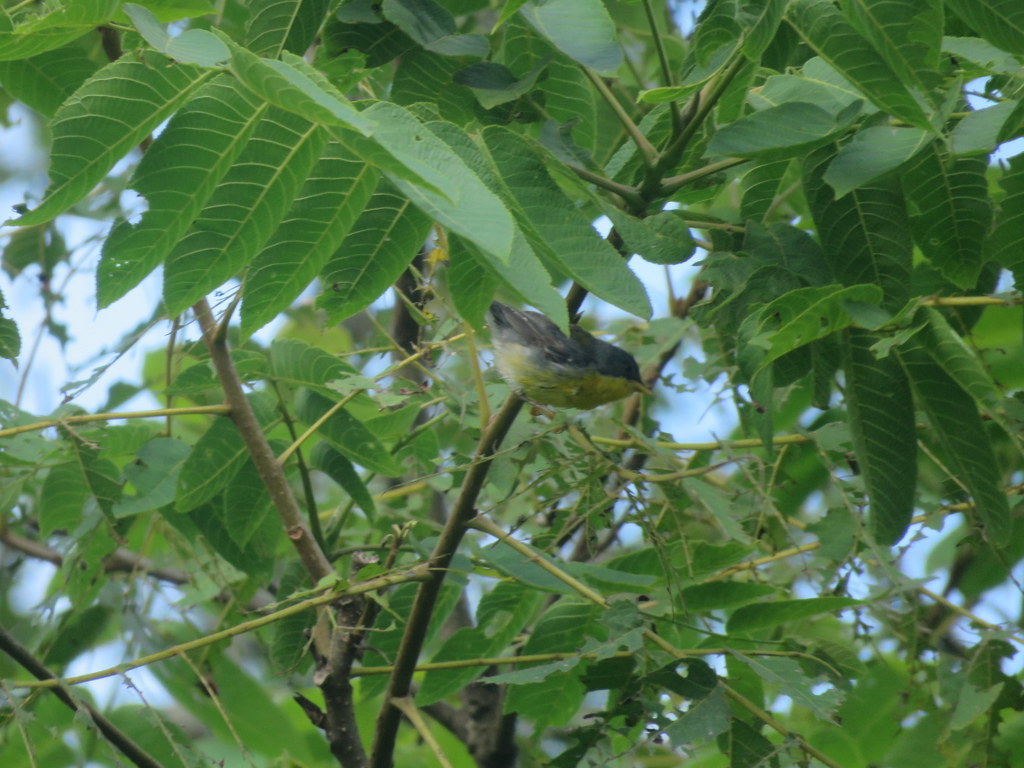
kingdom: Animalia
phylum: Chordata
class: Aves
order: Passeriformes
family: Parulidae
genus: Setophaga
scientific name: Setophaga pitiayumi
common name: Tropical parula
